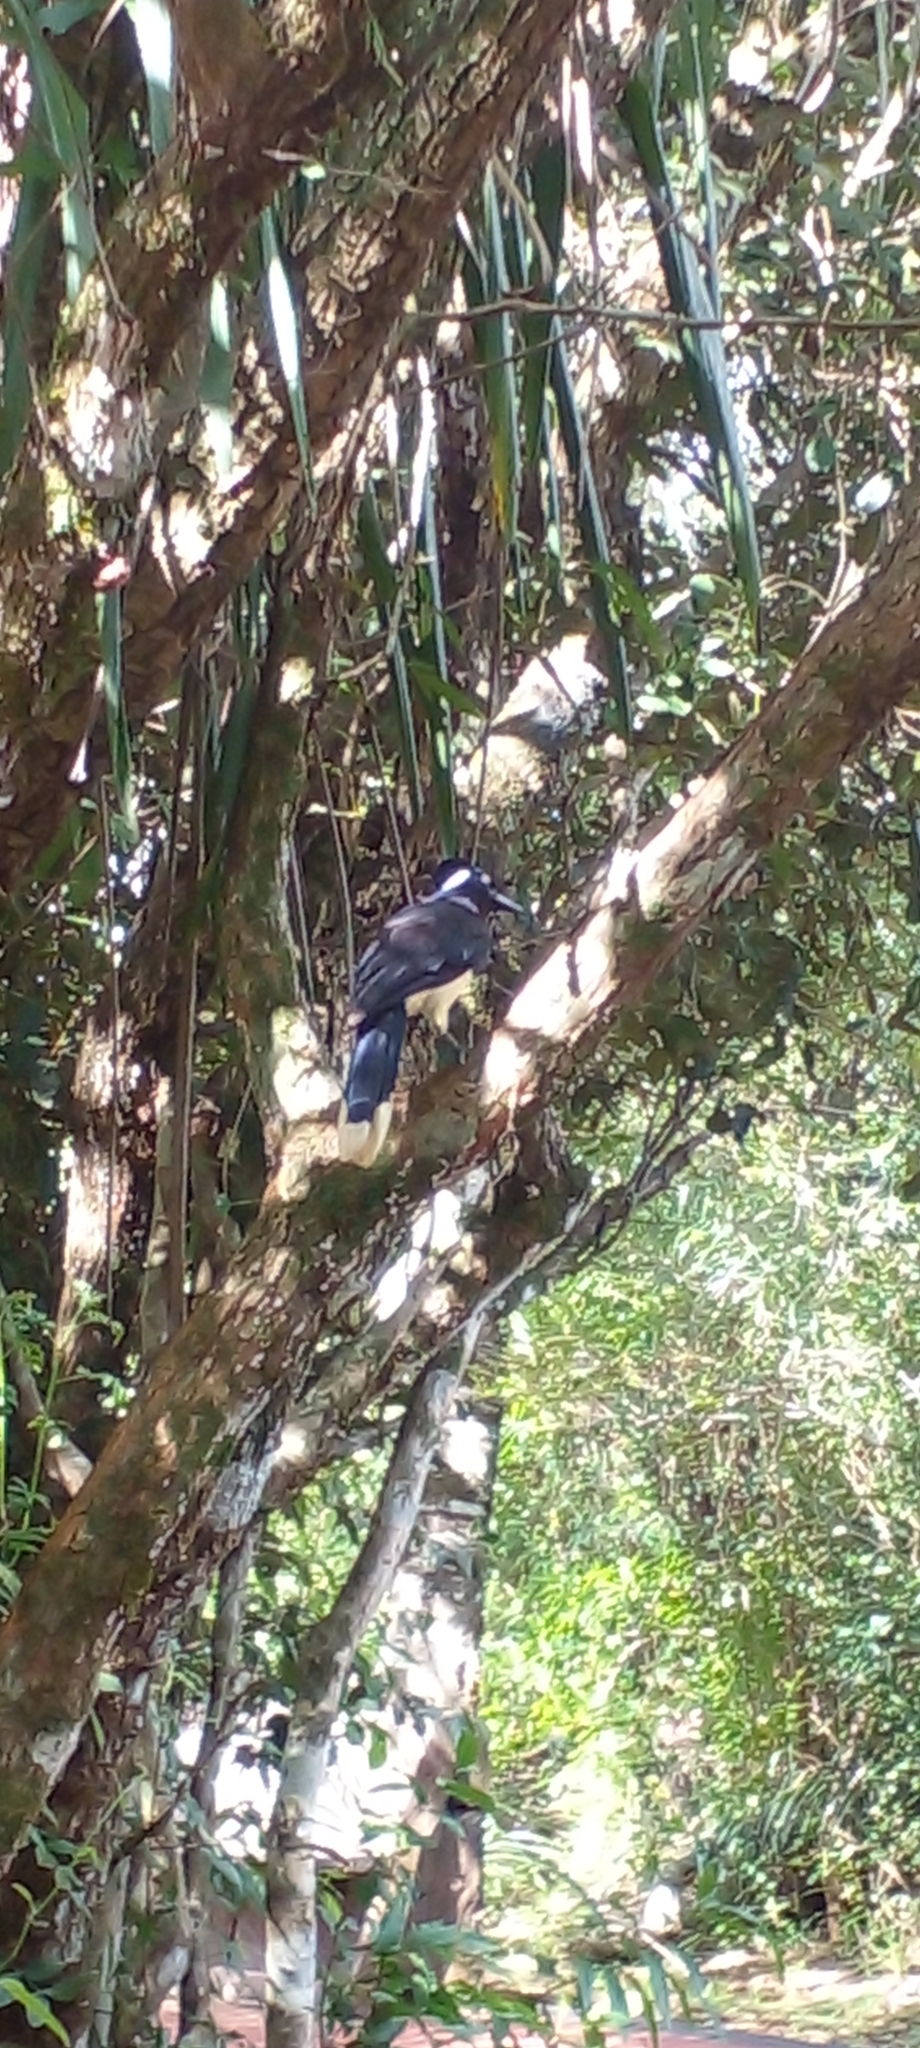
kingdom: Animalia
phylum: Chordata
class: Aves
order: Passeriformes
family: Corvidae
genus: Cyanocorax
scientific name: Cyanocorax chrysops
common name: Plush-crested jay
